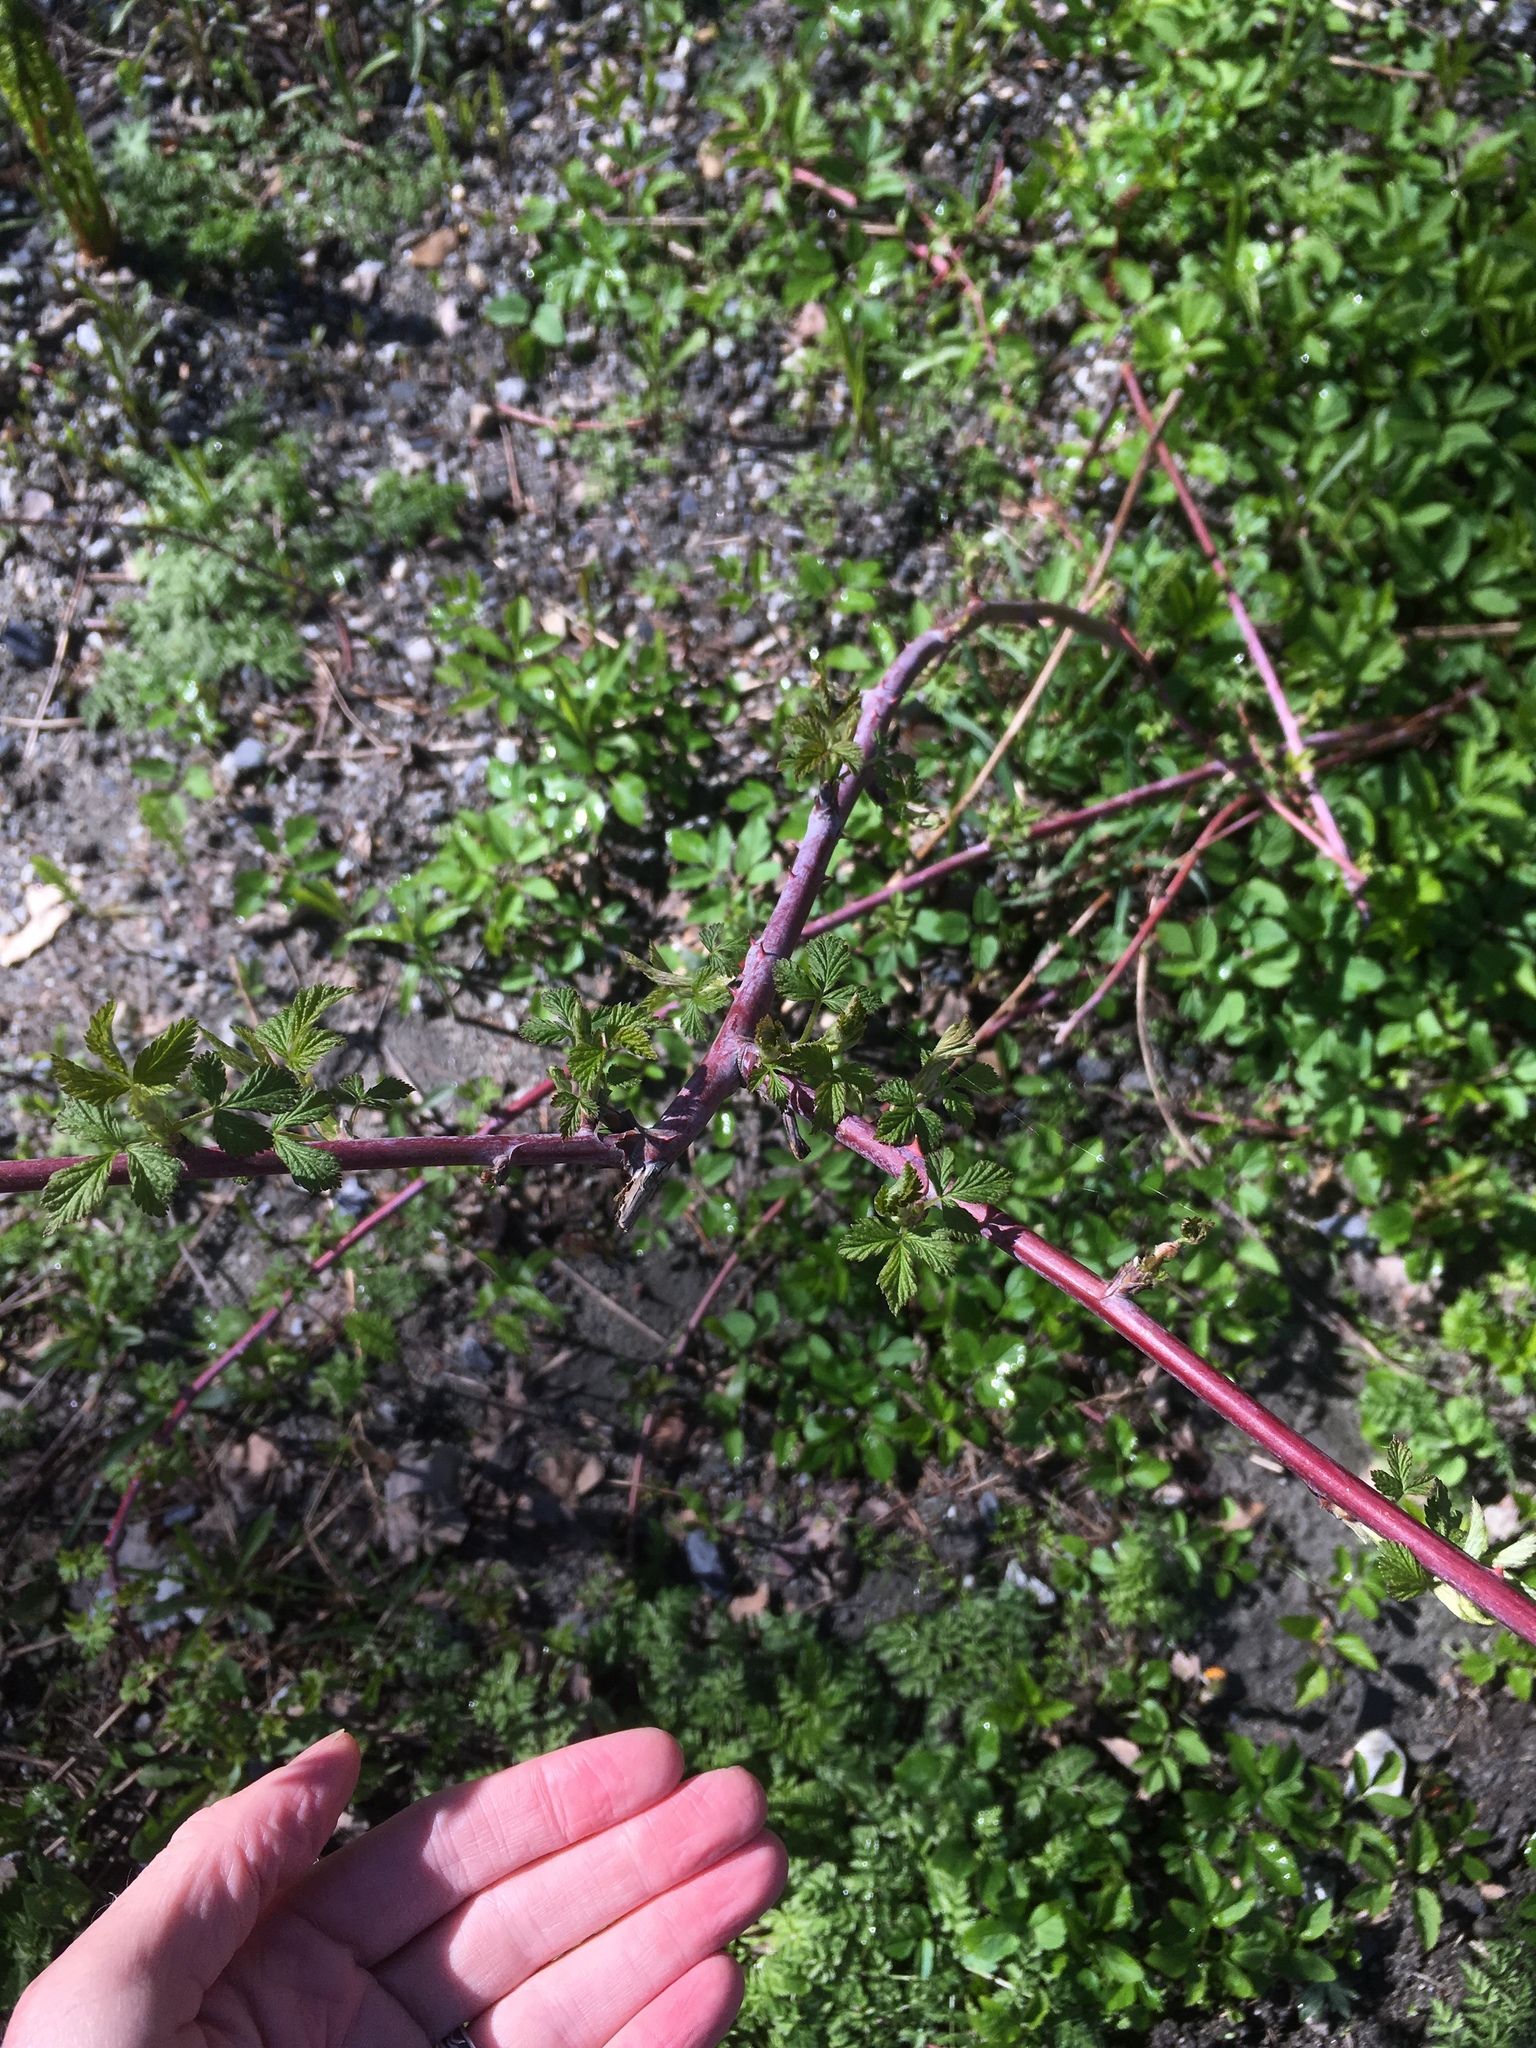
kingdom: Plantae
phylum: Tracheophyta
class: Magnoliopsida
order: Rosales
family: Rosaceae
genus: Rubus
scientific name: Rubus occidentalis
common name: Black raspberry
